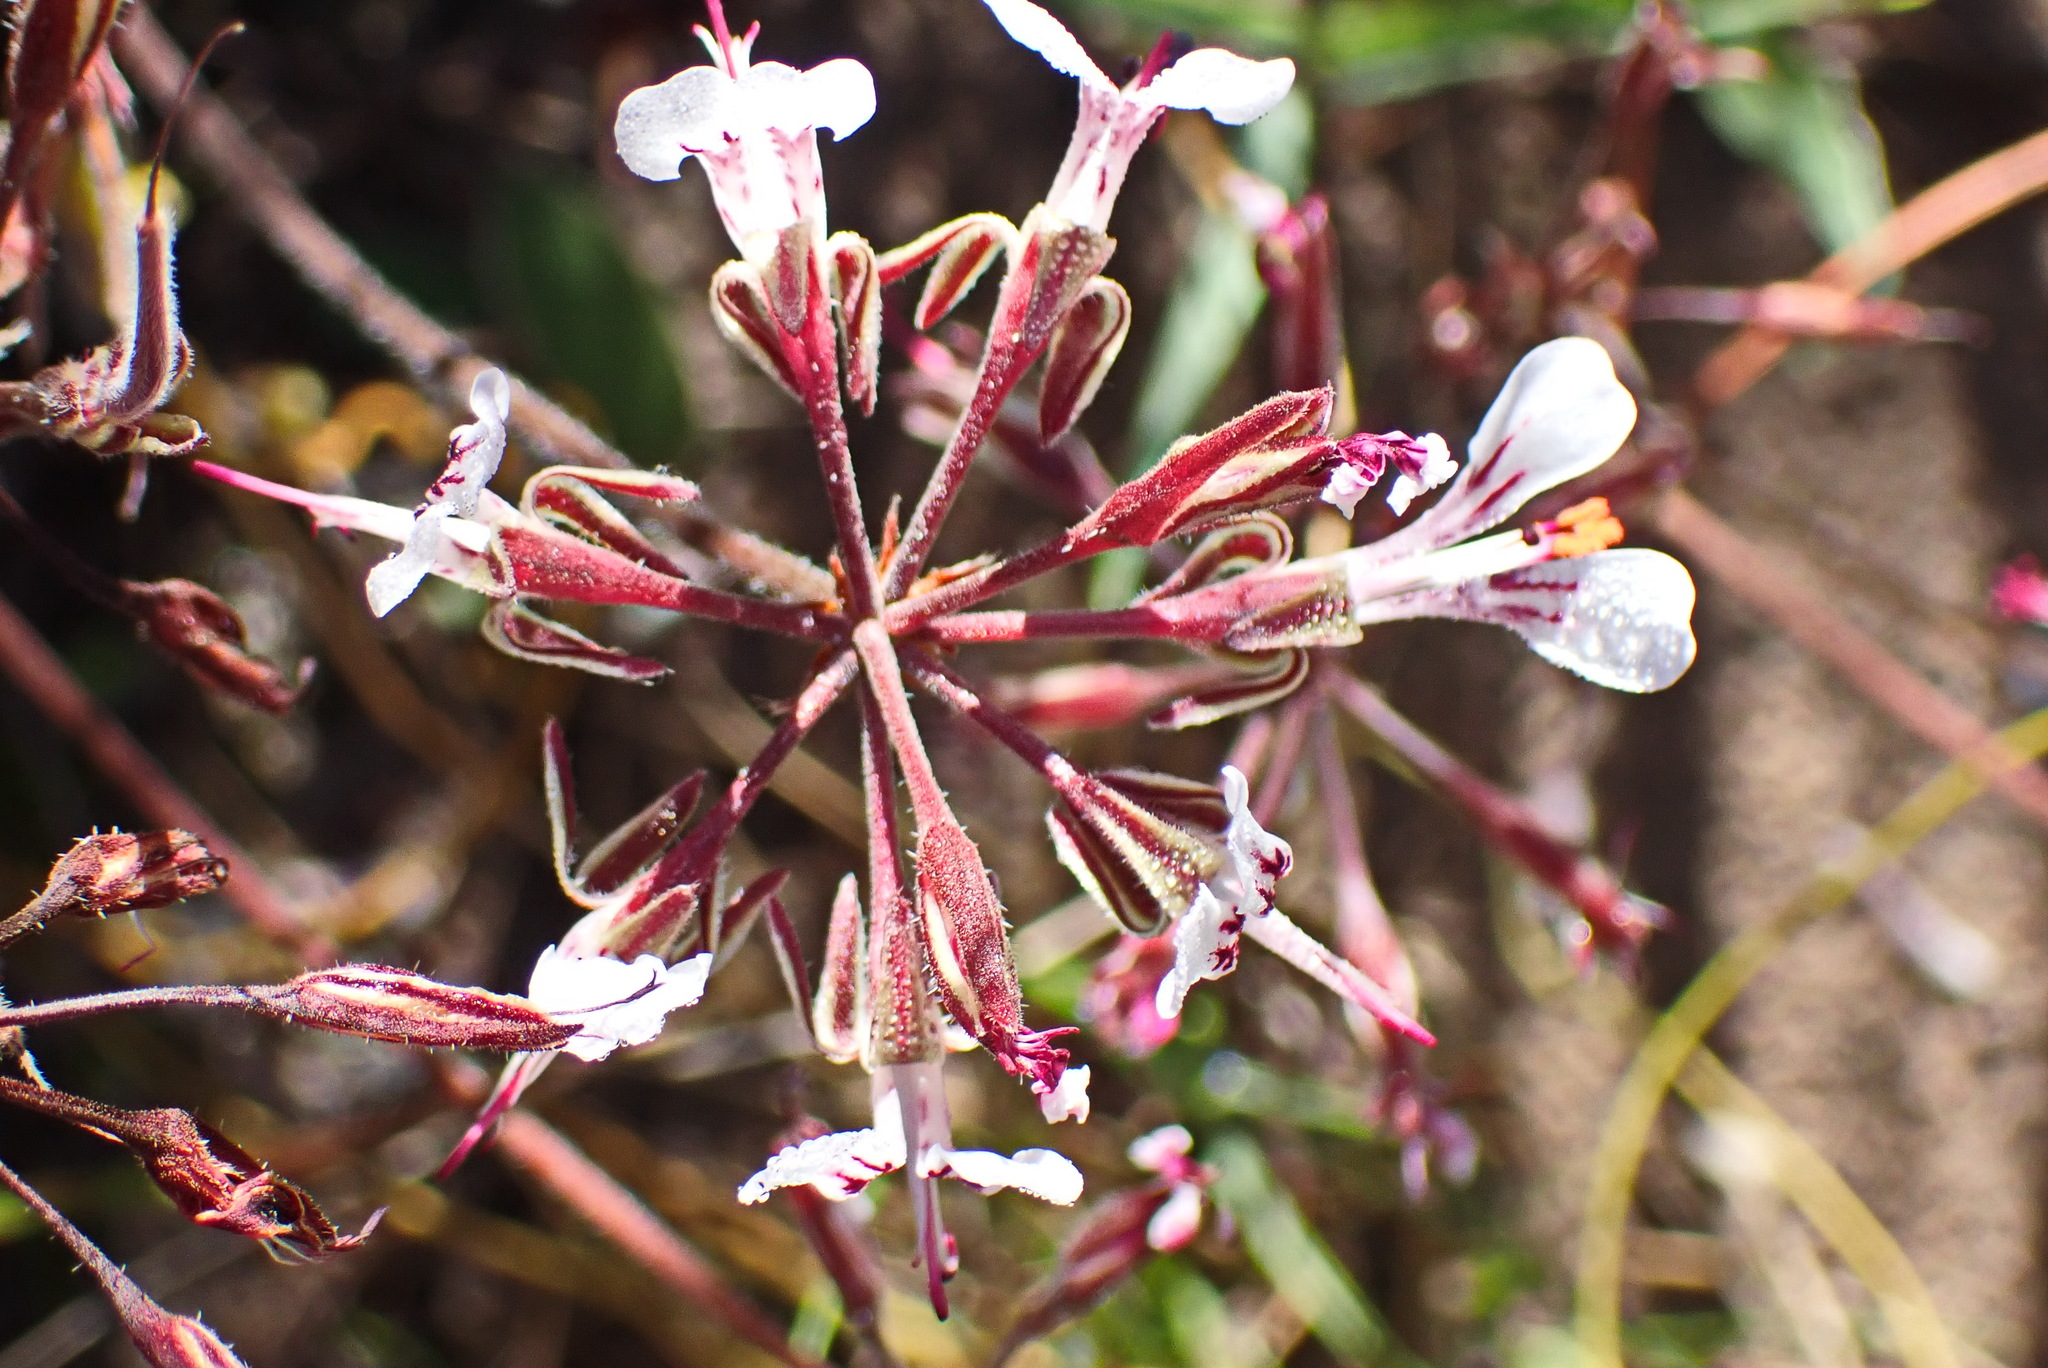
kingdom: Plantae
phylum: Tracheophyta
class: Magnoliopsida
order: Geraniales
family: Geraniaceae
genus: Pelargonium
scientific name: Pelargonium dipetalum
